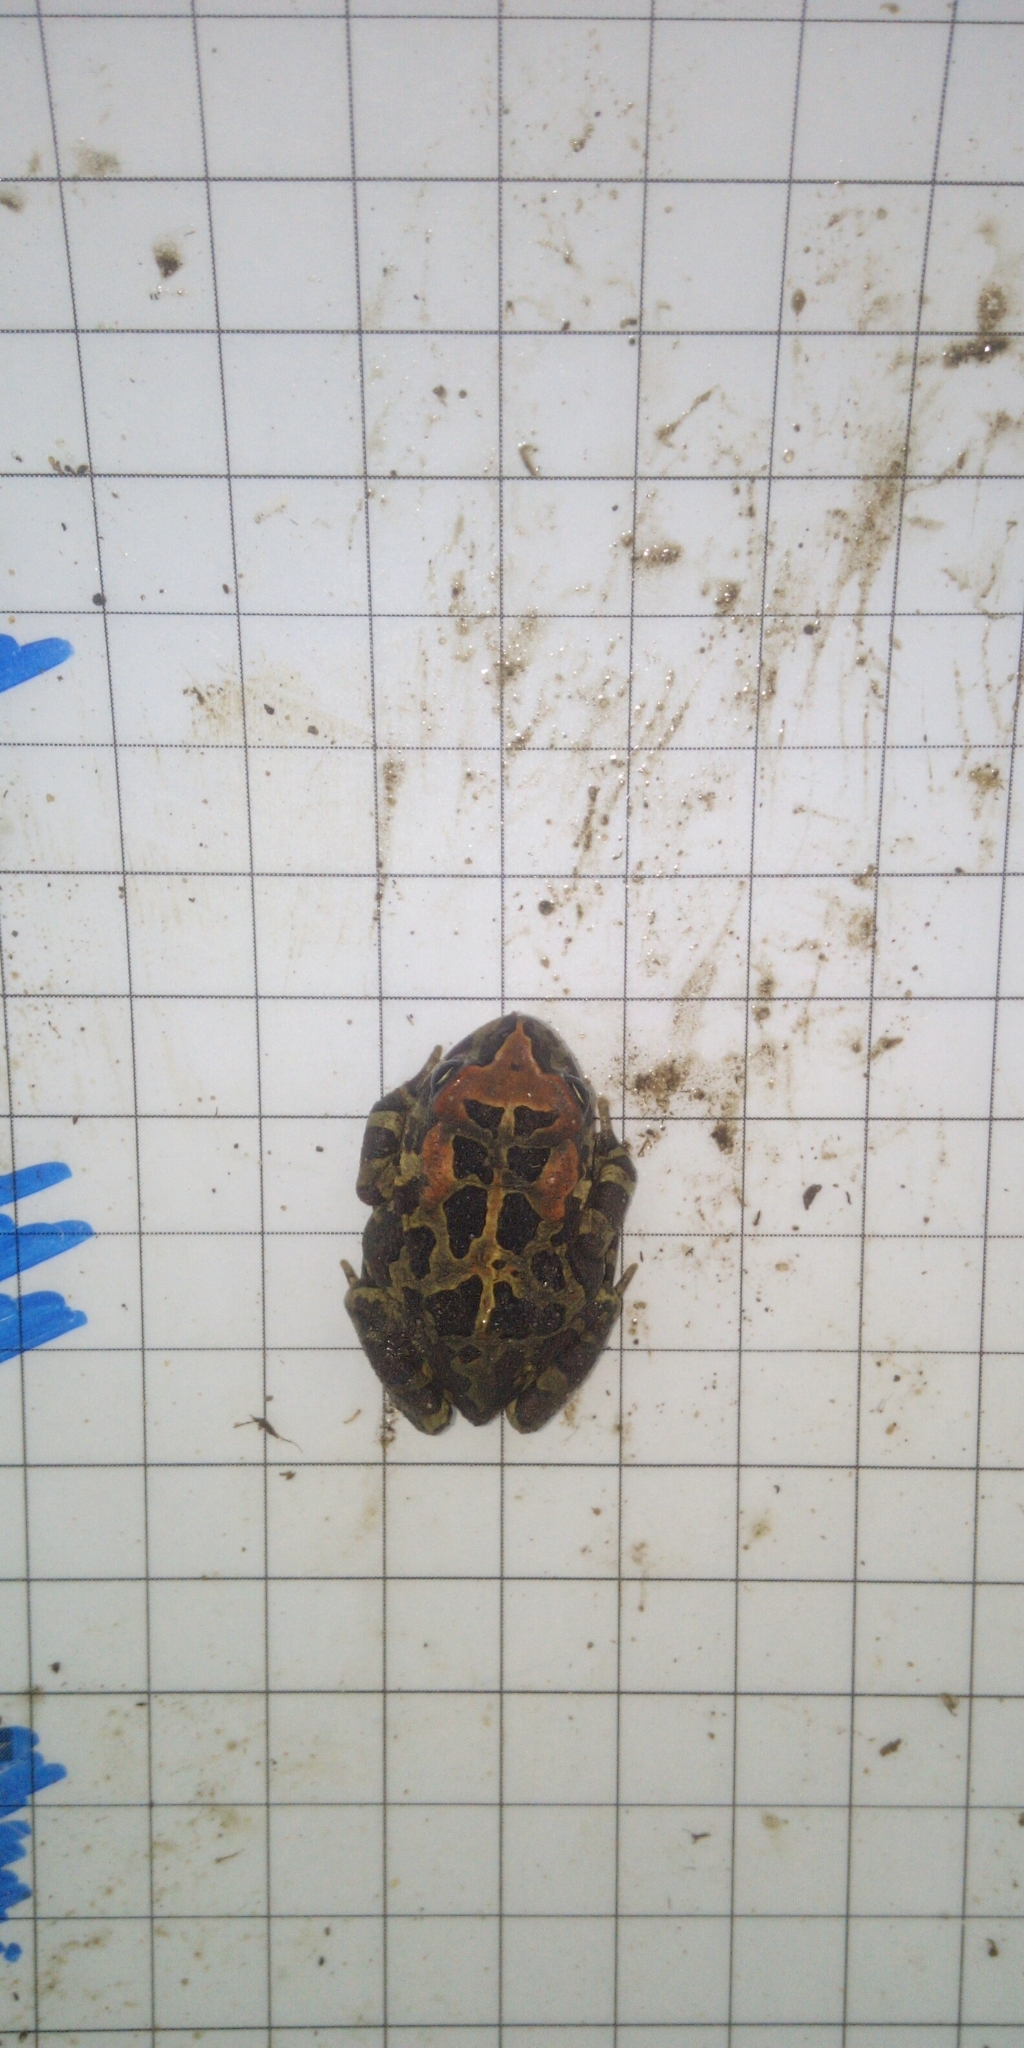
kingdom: Animalia
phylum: Chordata
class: Amphibia
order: Anura
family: Bufonidae
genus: Sclerophrys
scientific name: Sclerophrys pantherina
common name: Panther toad
